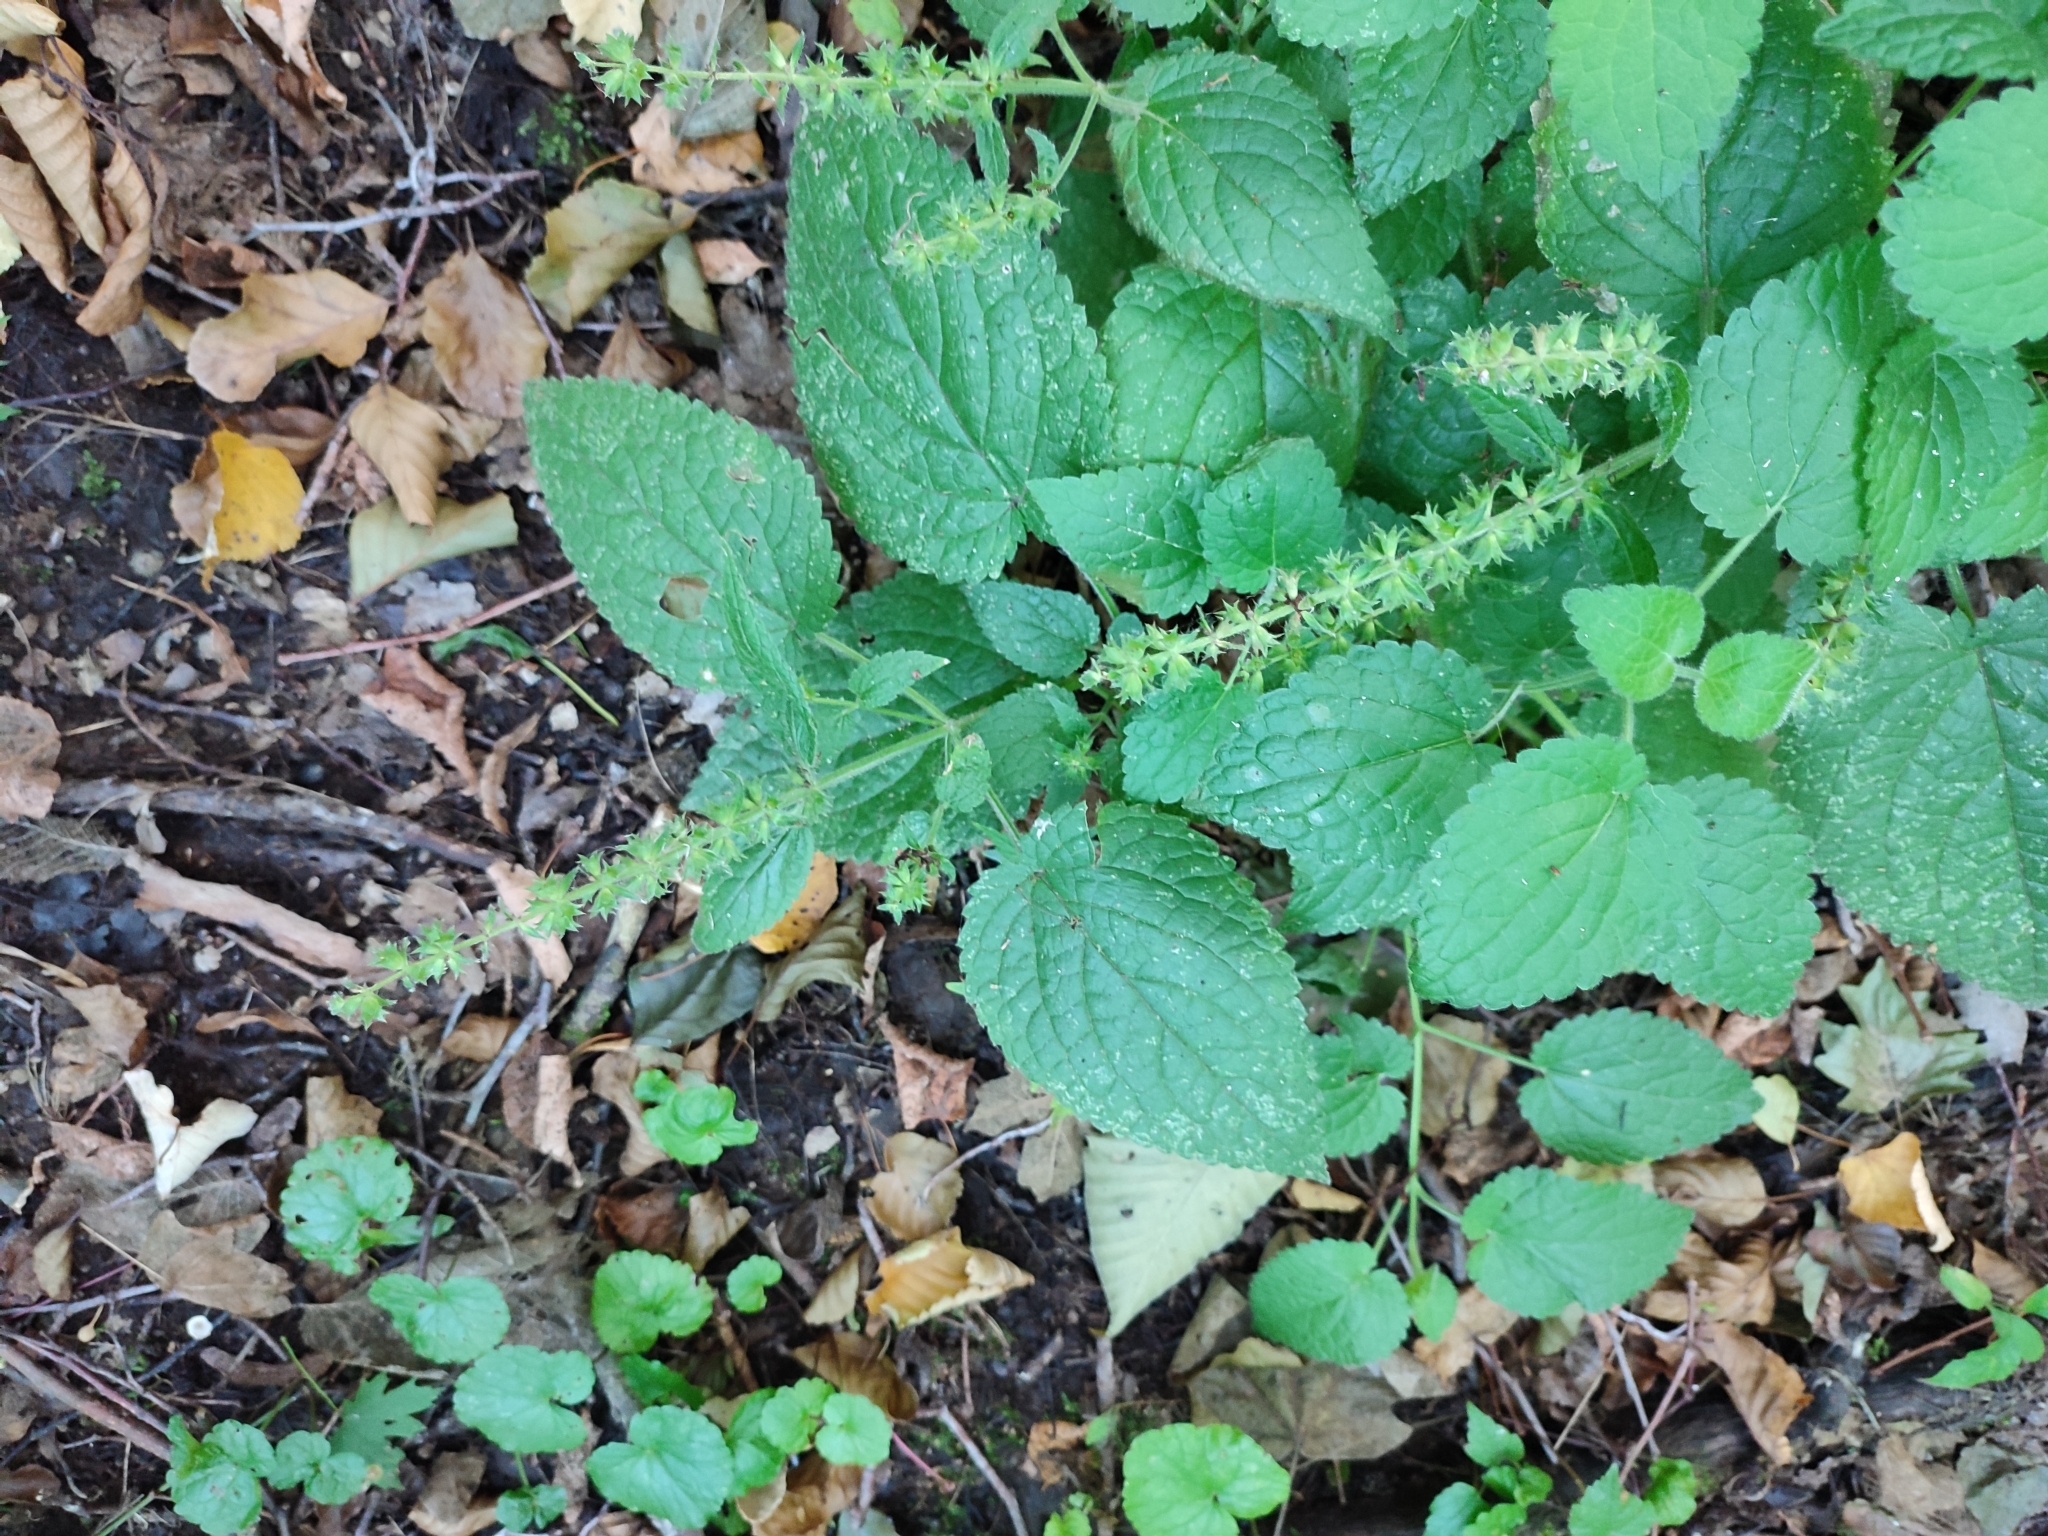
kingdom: Plantae
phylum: Tracheophyta
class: Magnoliopsida
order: Lamiales
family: Lamiaceae
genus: Stachys
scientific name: Stachys sylvatica
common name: Hedge woundwort
